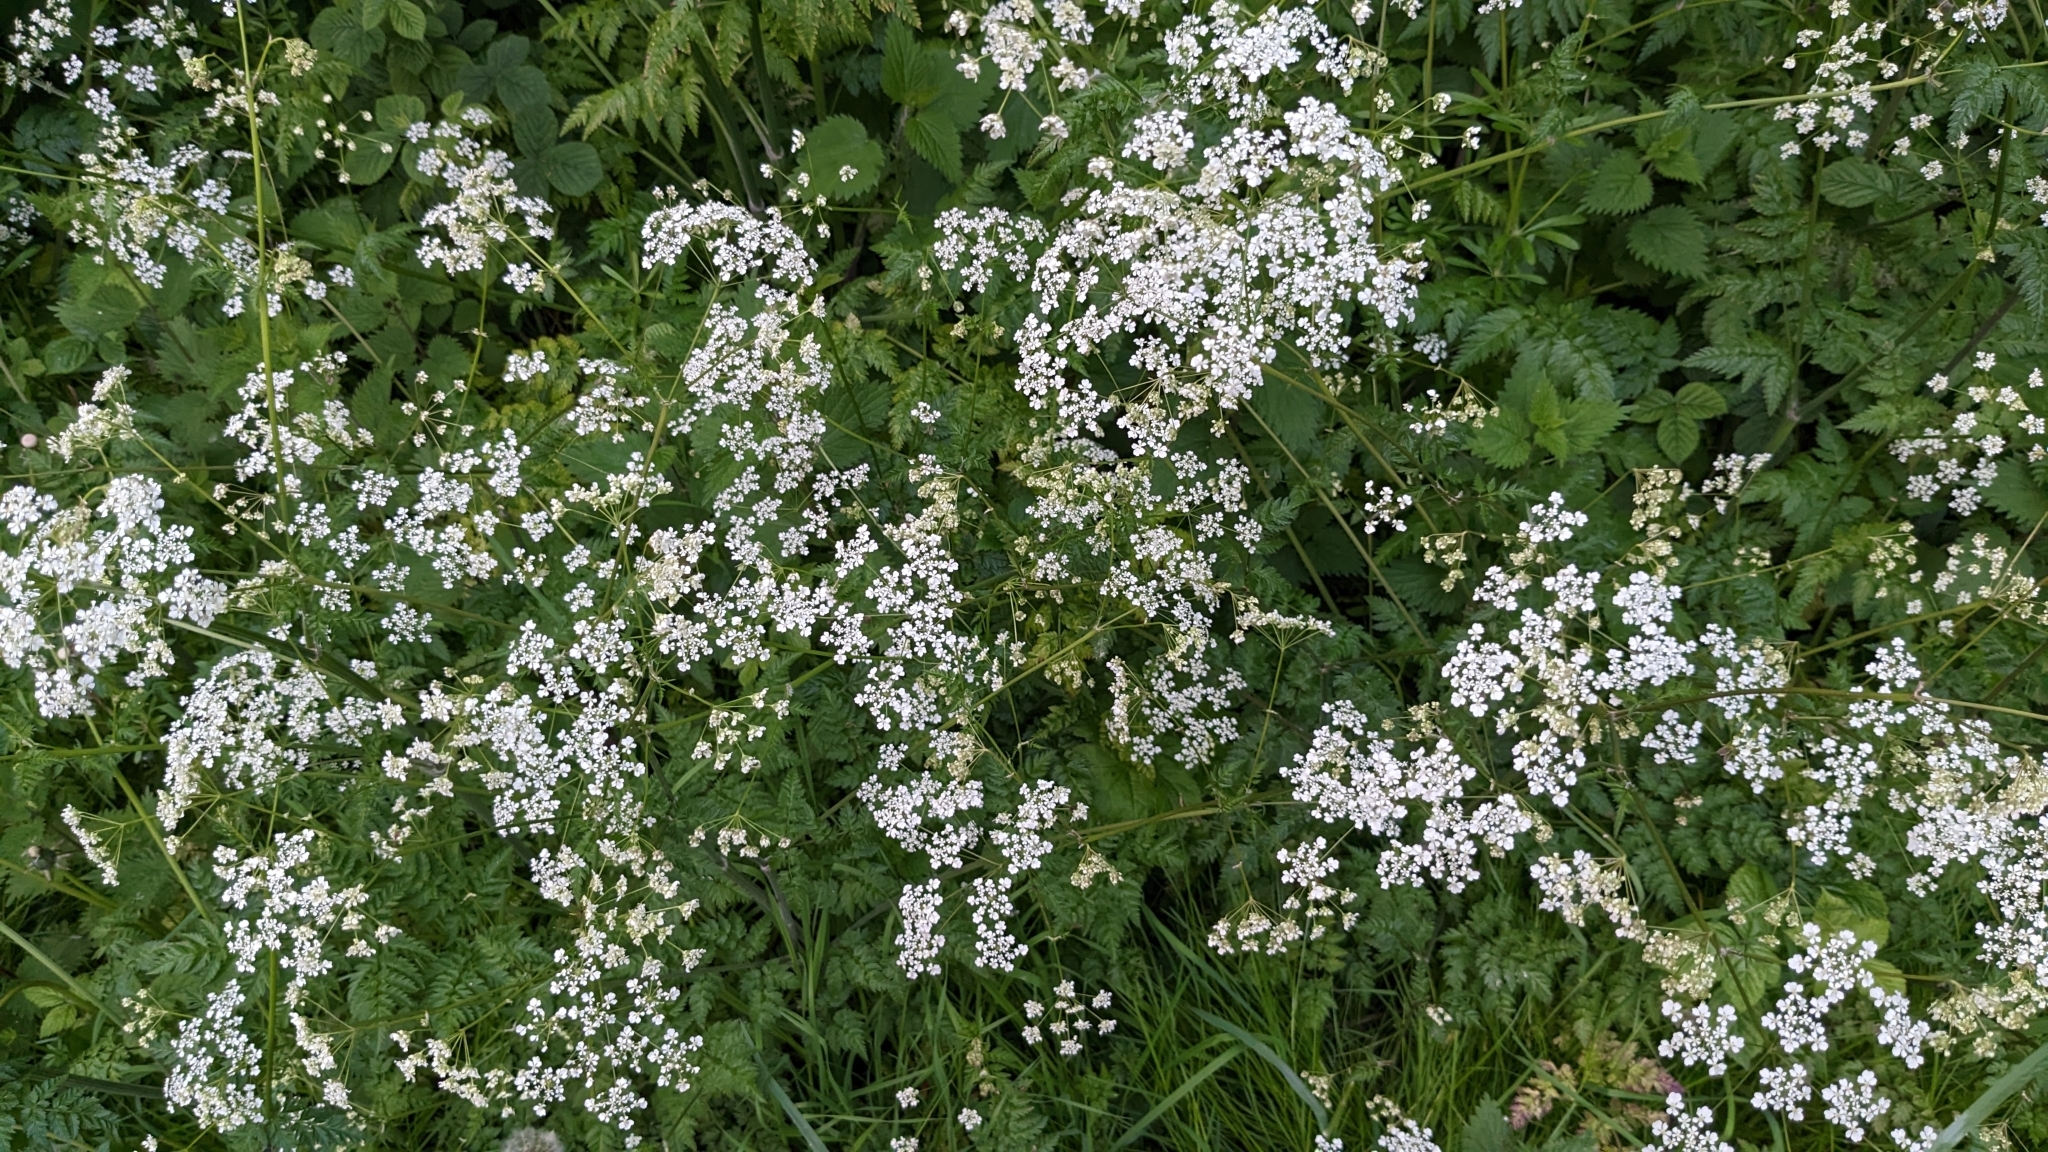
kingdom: Plantae
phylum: Tracheophyta
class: Magnoliopsida
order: Apiales
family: Apiaceae
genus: Anthriscus
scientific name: Anthriscus sylvestris
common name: Cow parsley
